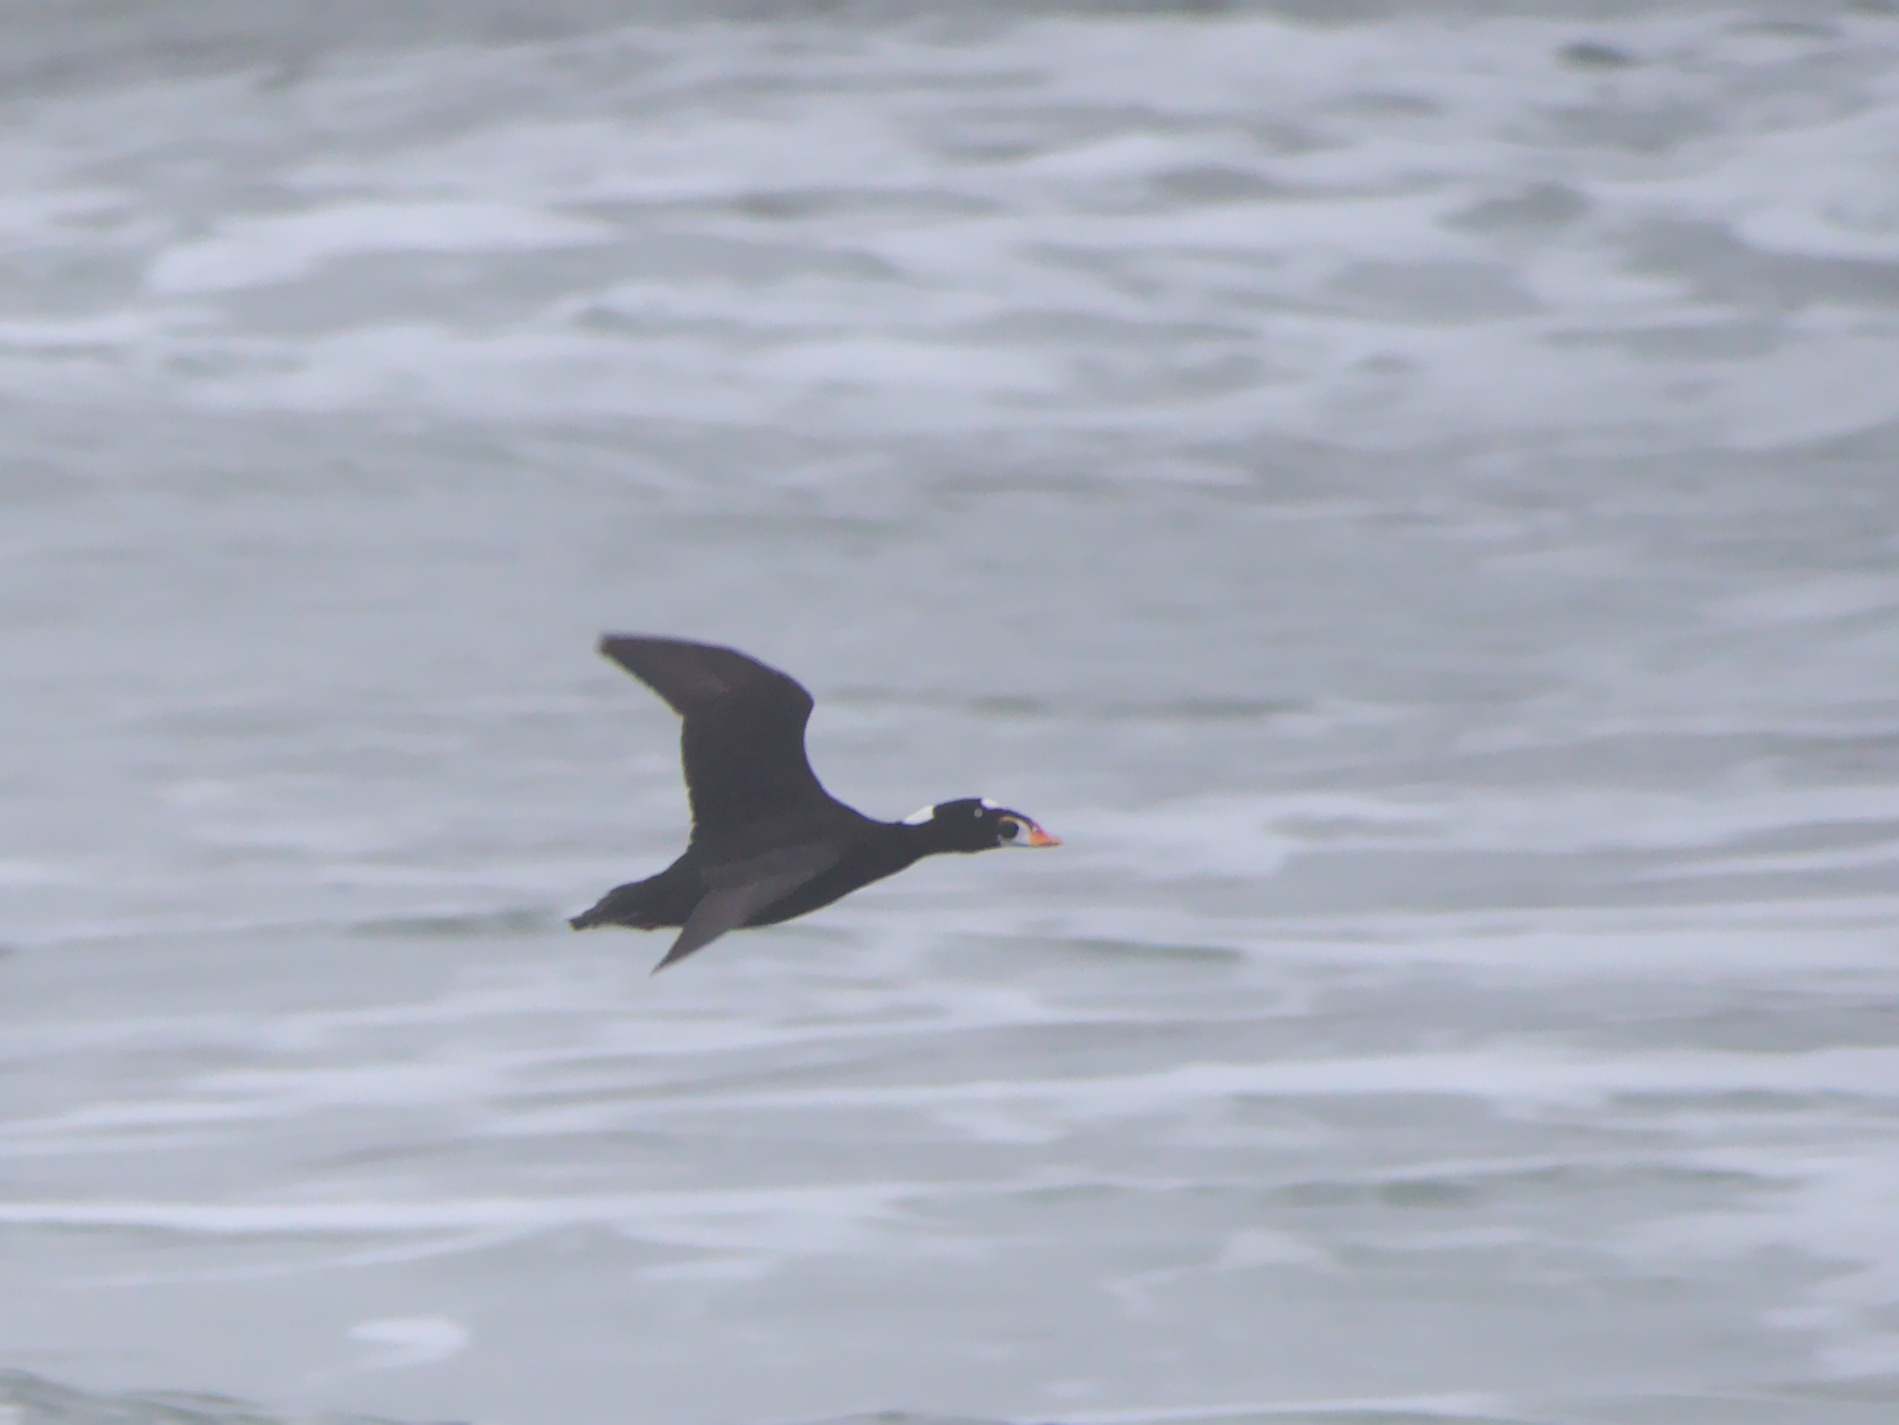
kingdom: Animalia
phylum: Chordata
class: Aves
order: Anseriformes
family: Anatidae
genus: Melanitta
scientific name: Melanitta perspicillata
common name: Surf scoter
